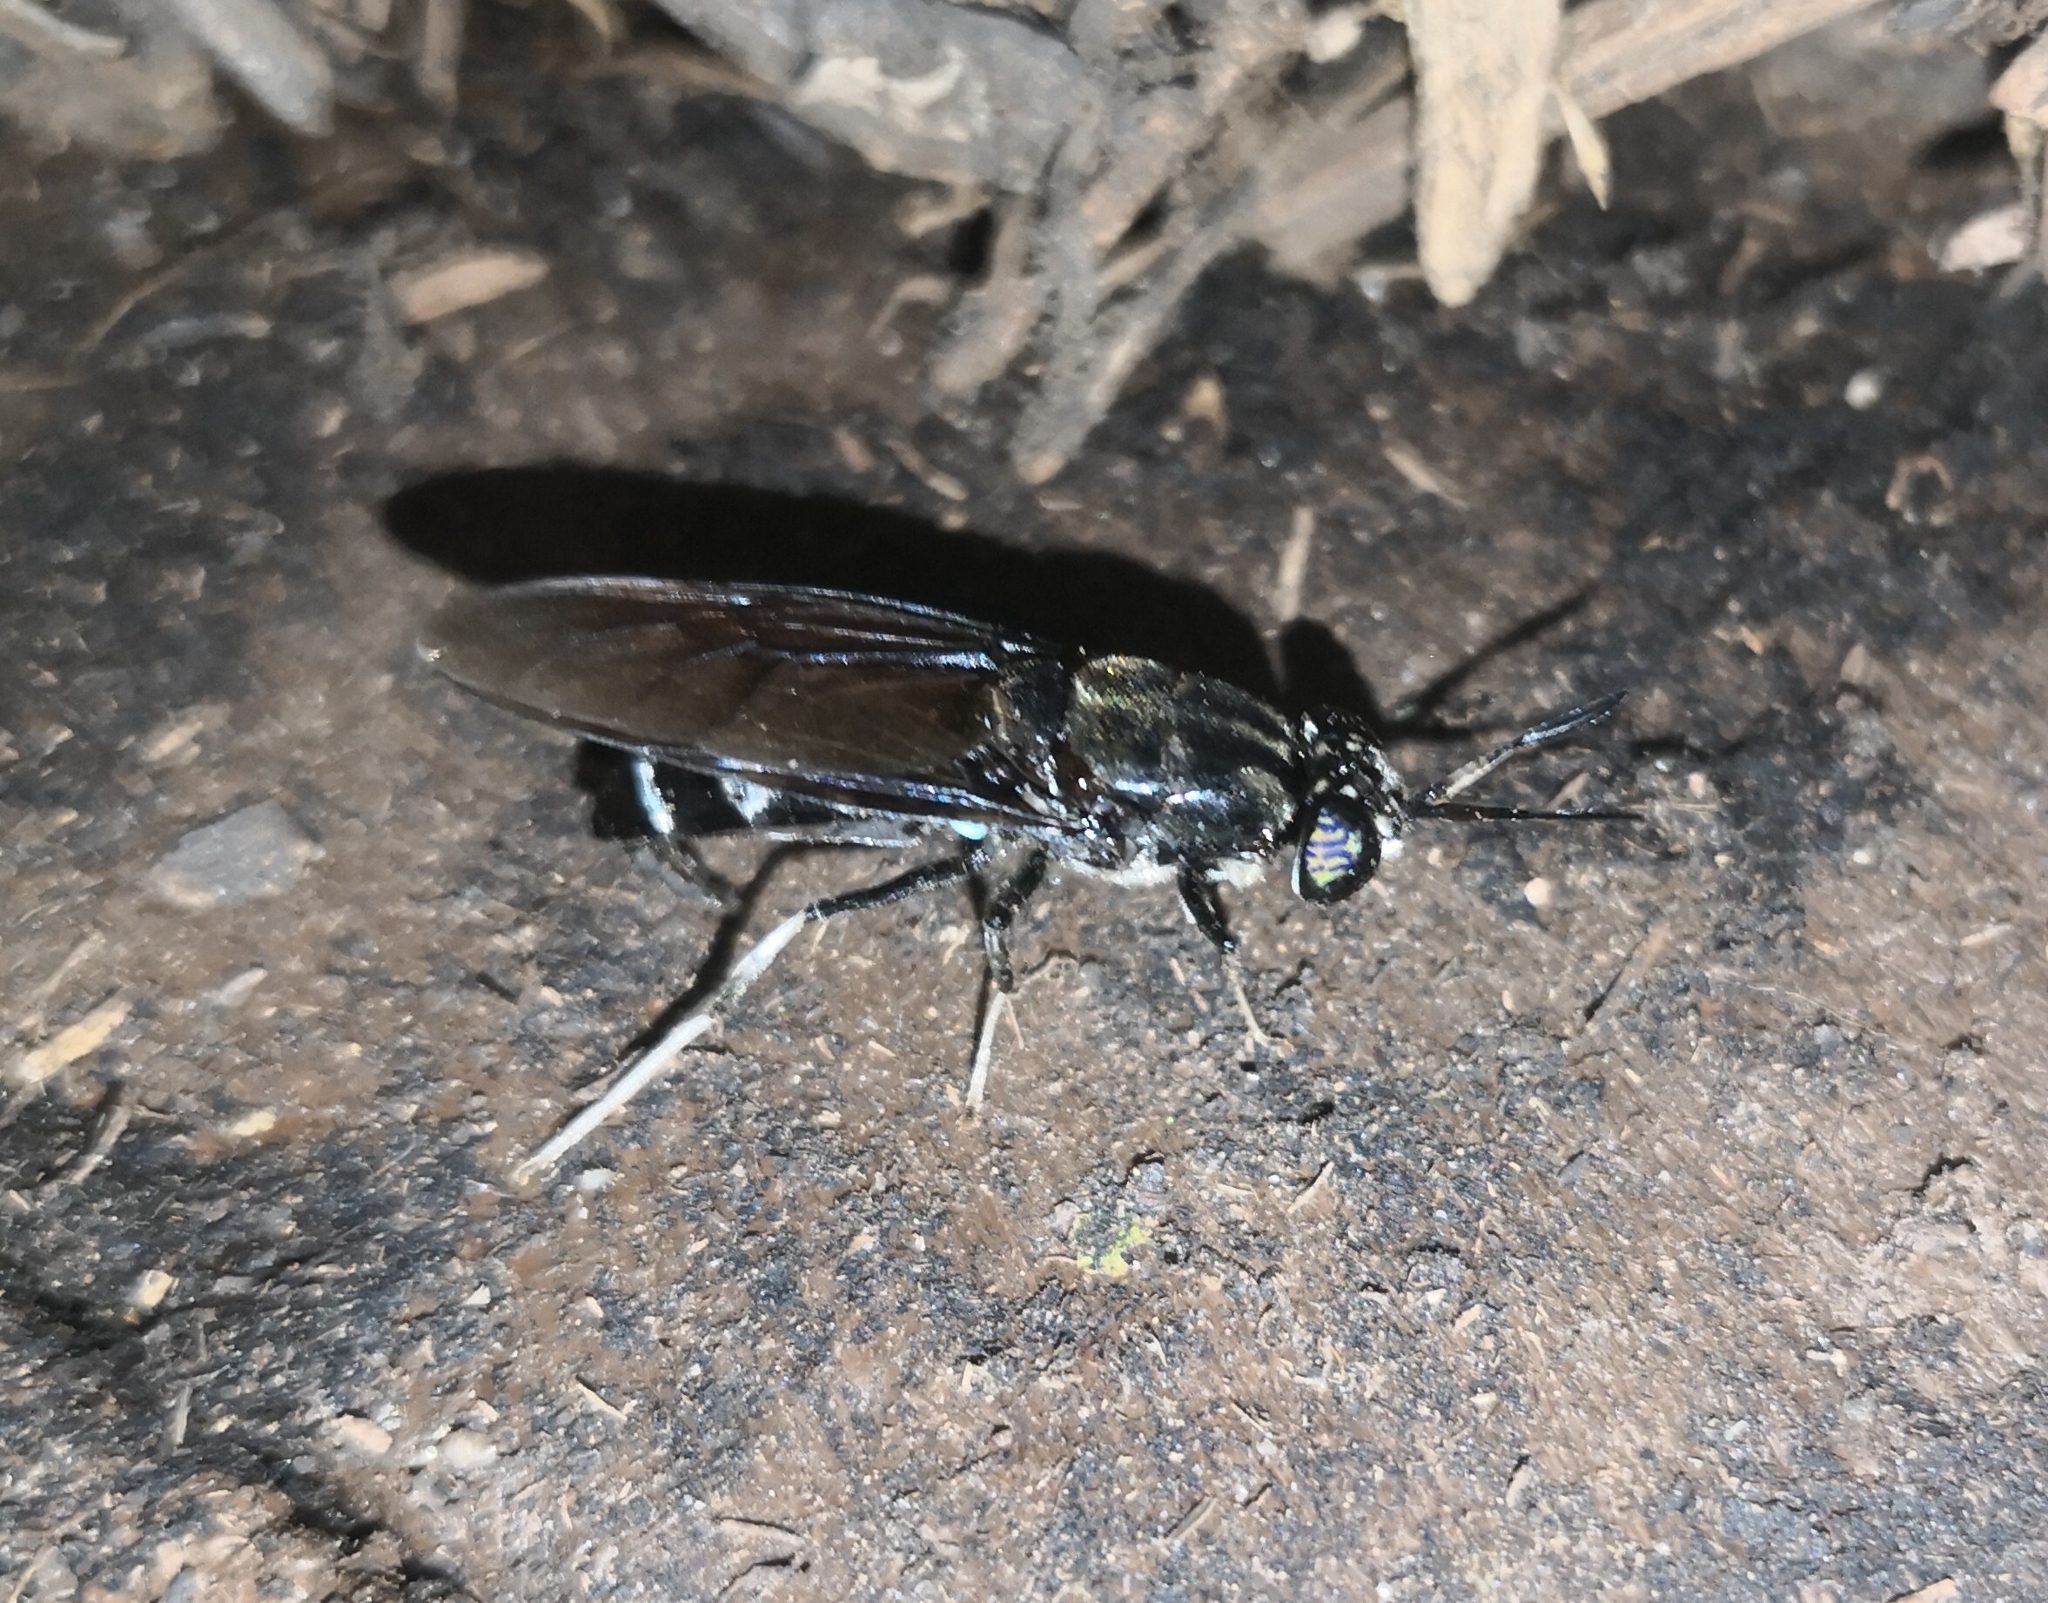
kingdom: Animalia
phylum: Arthropoda
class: Insecta
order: Diptera
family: Stratiomyidae
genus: Hermetia
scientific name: Hermetia illucens
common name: Black soldier fly
